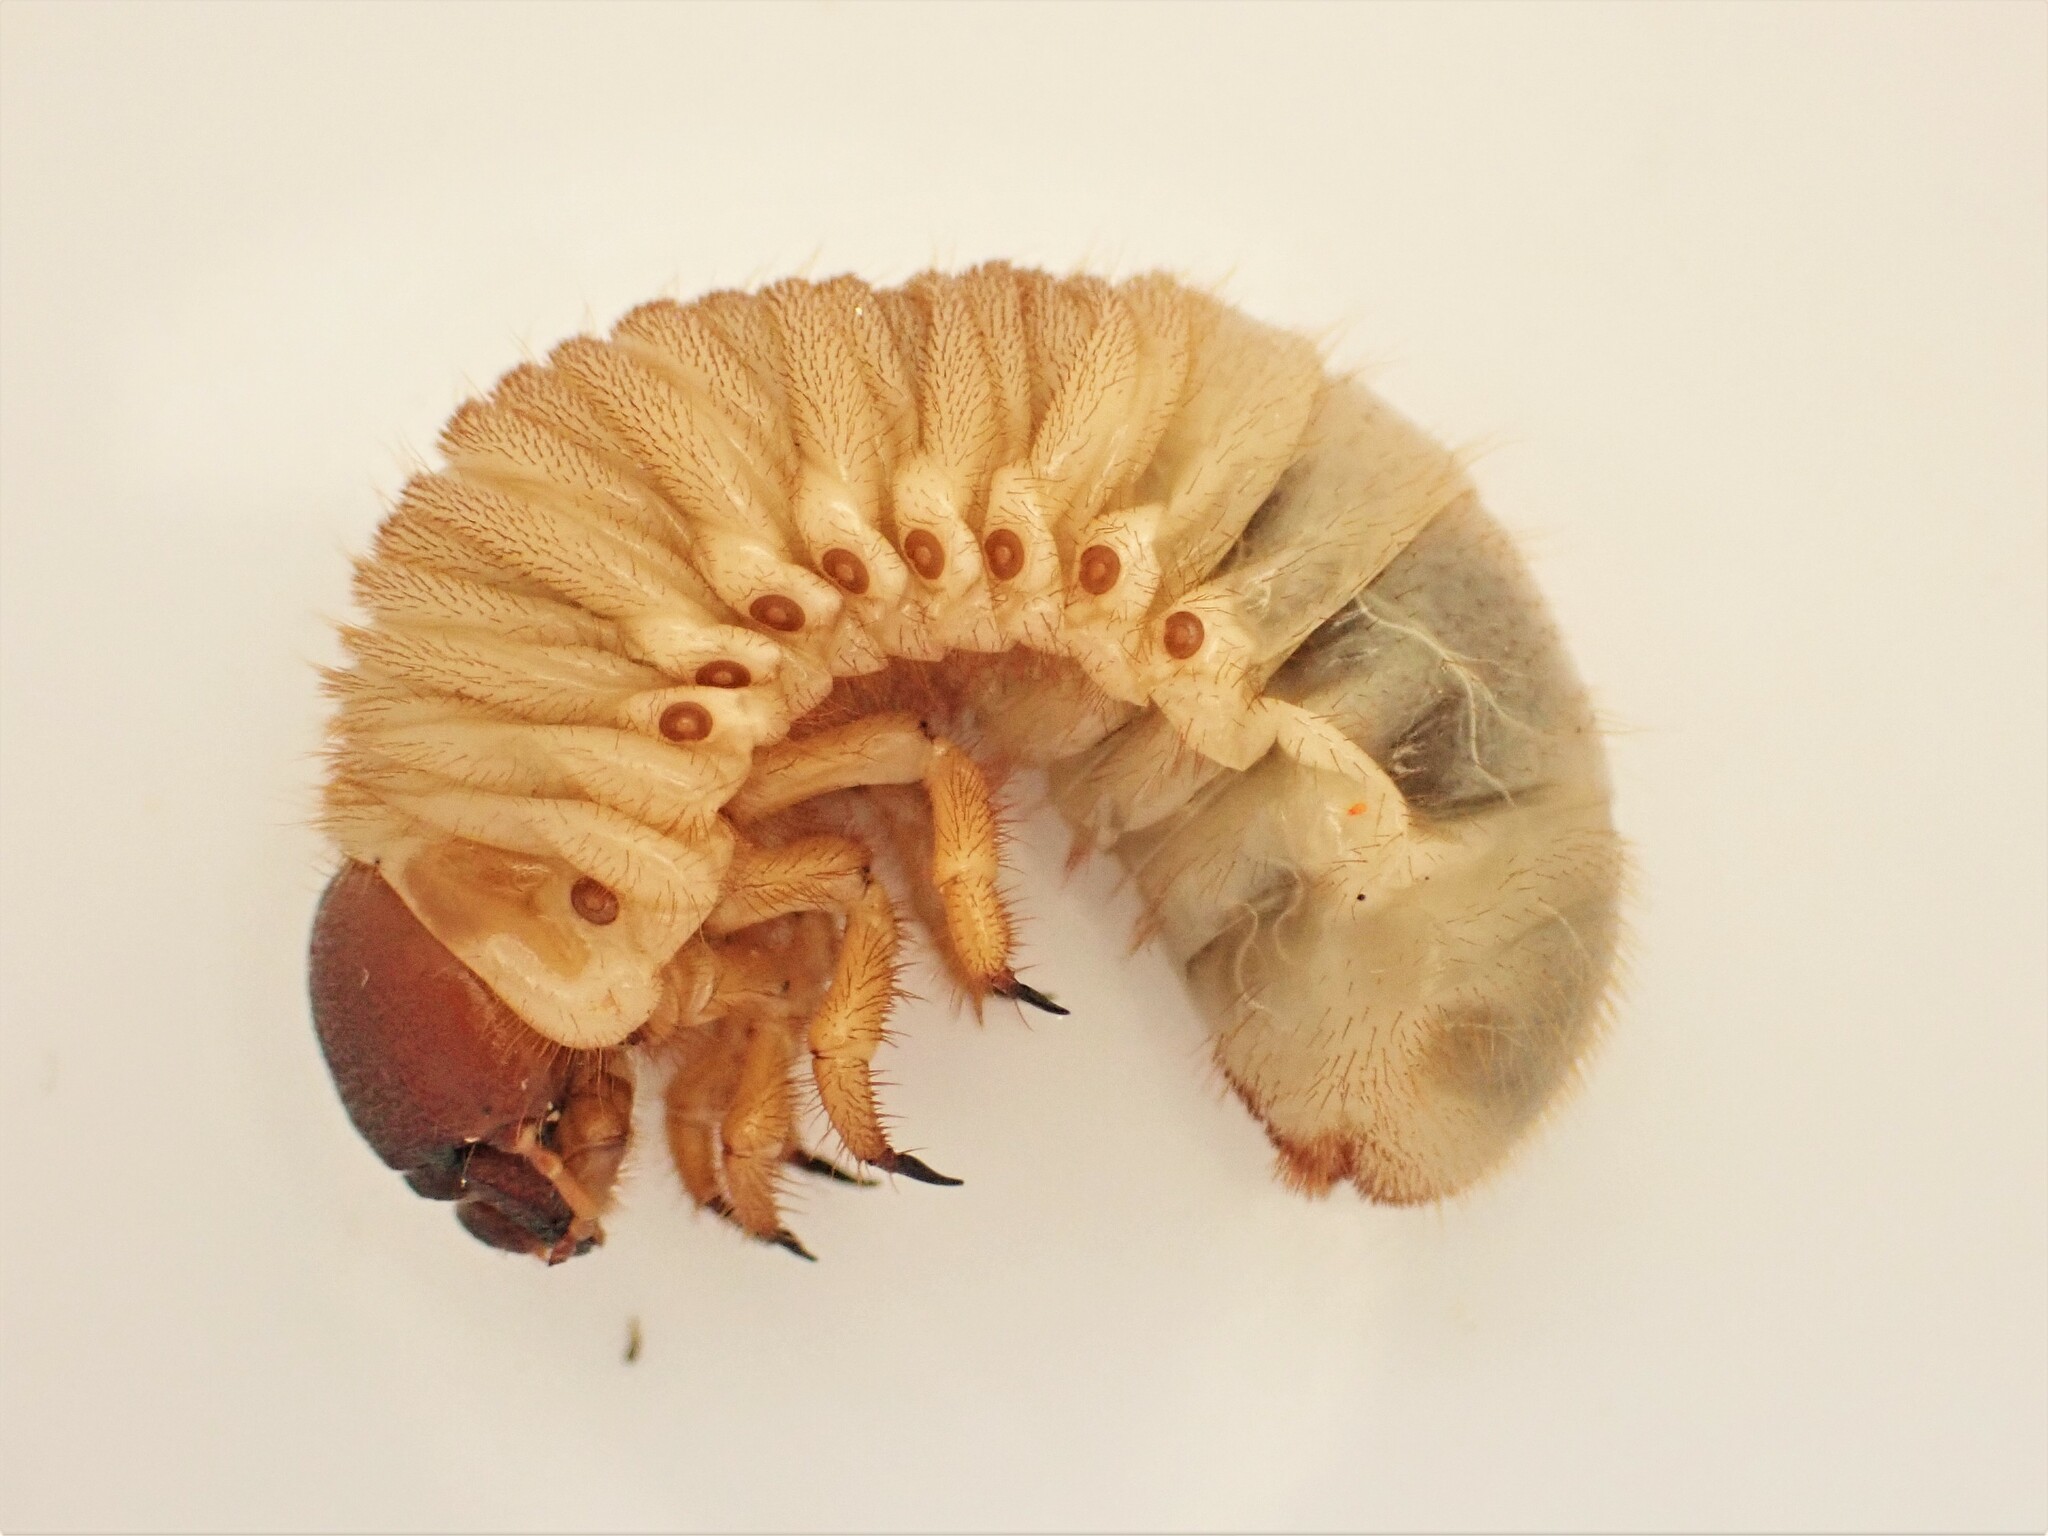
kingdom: Animalia
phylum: Arthropoda
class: Insecta
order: Coleoptera
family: Scarabaeidae
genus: Pericoptus
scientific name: Pericoptus truncatus
